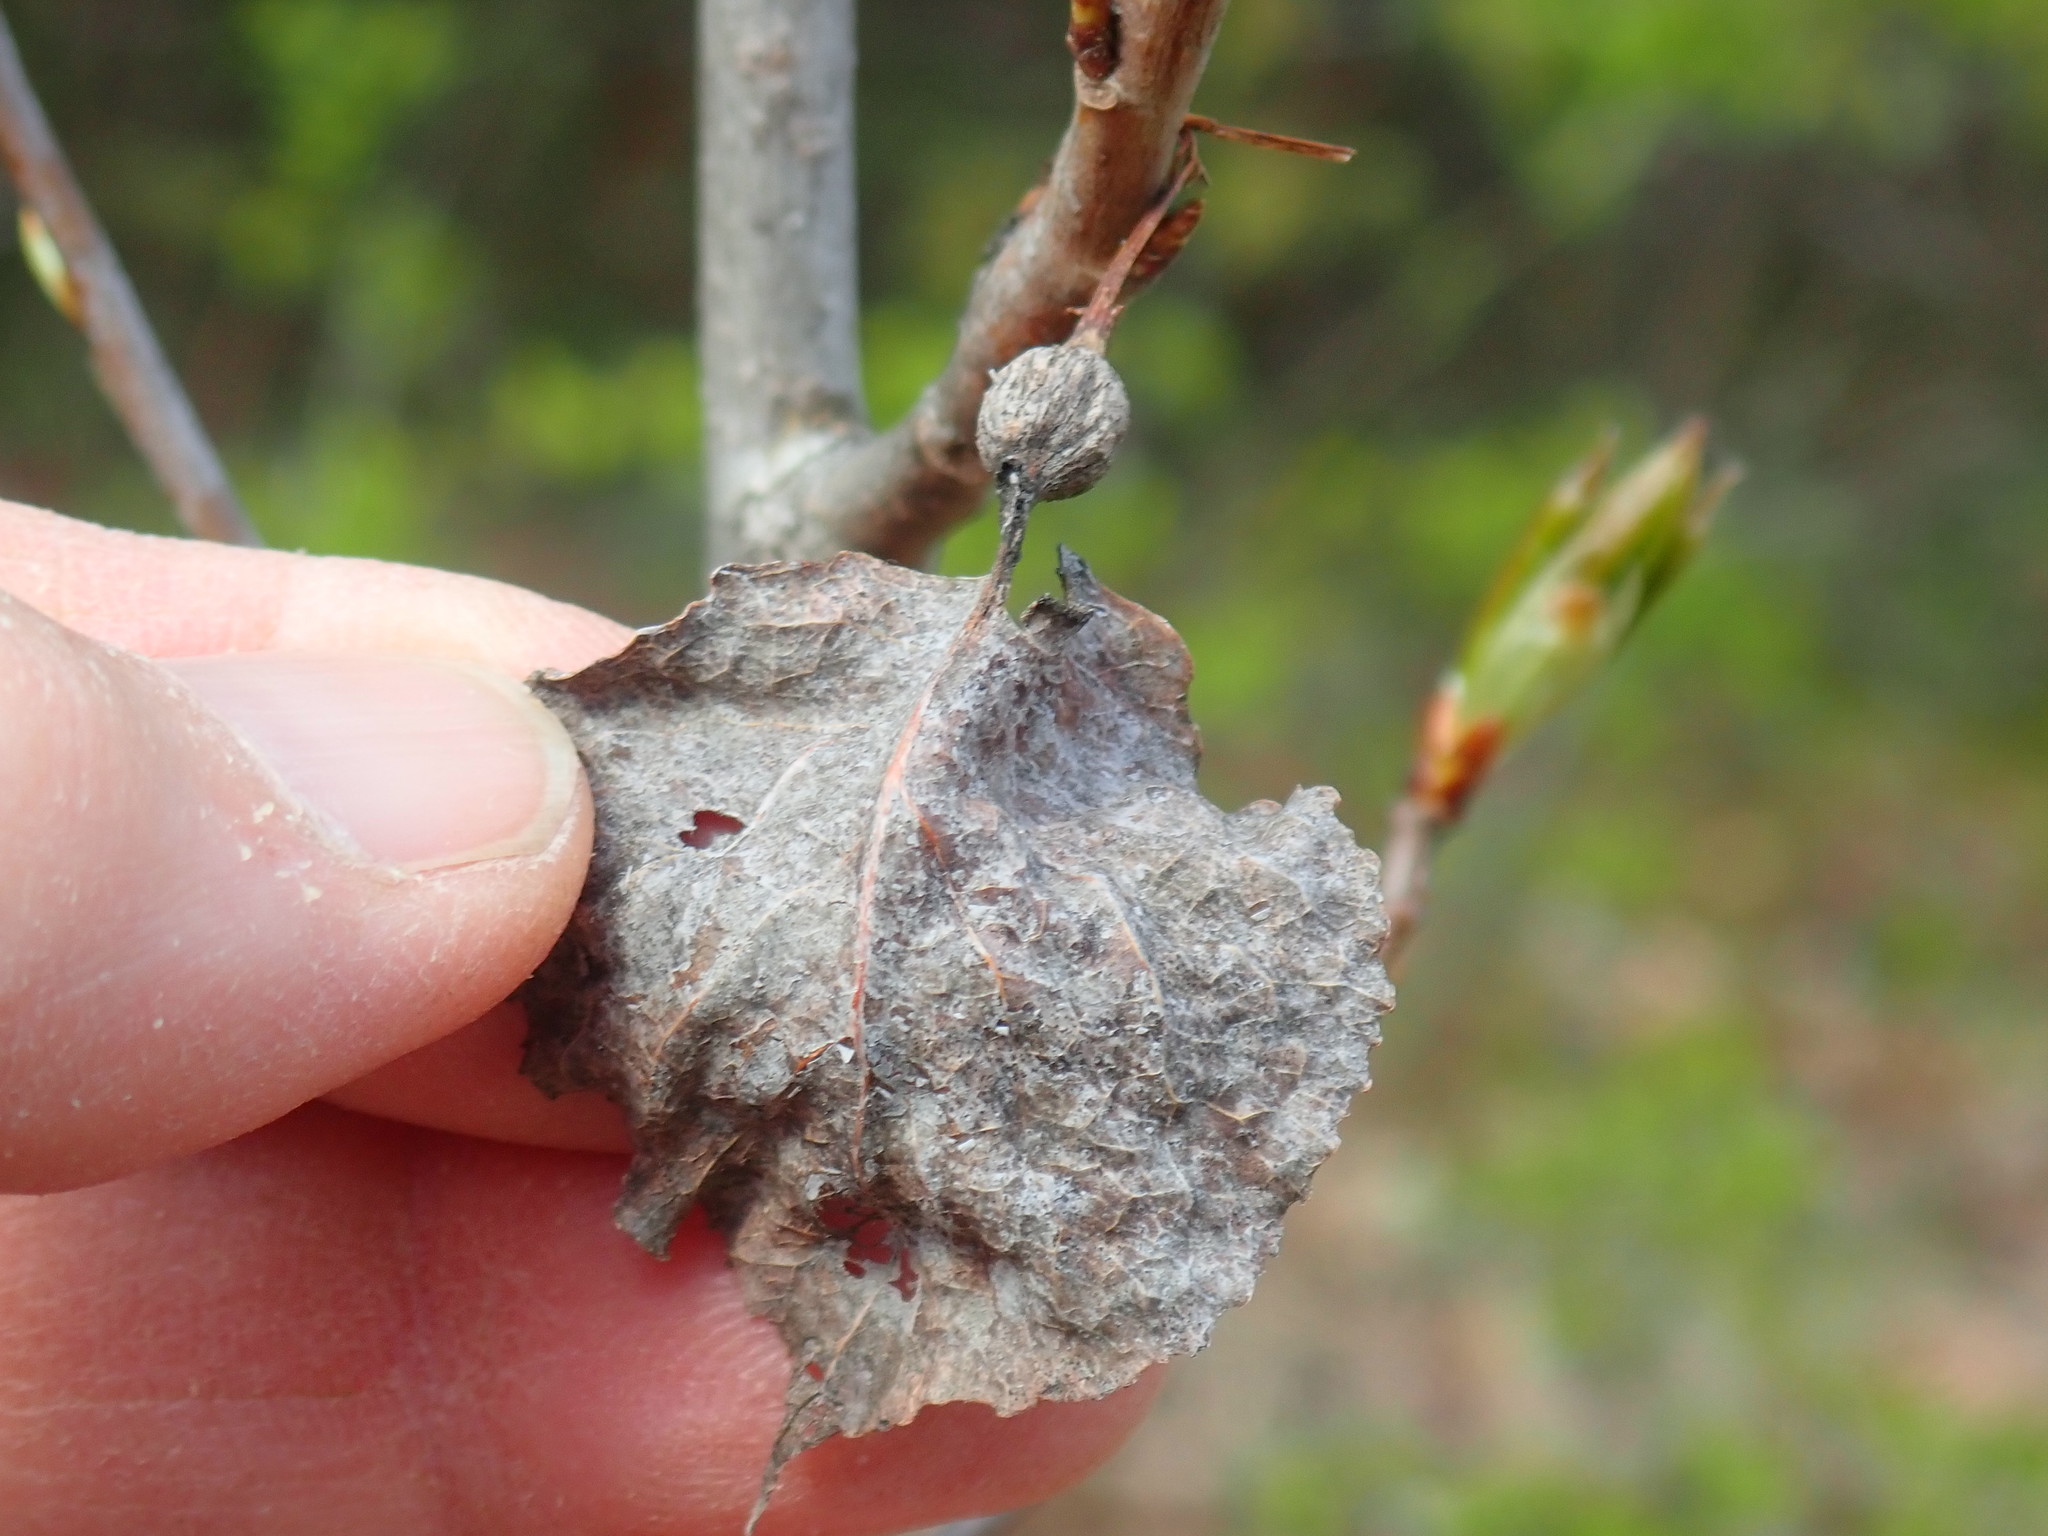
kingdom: Animalia
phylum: Arthropoda
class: Insecta
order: Lepidoptera
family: Nepticulidae
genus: Ectoedemia
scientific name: Ectoedemia populella
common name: Aspen petiole gall moth
